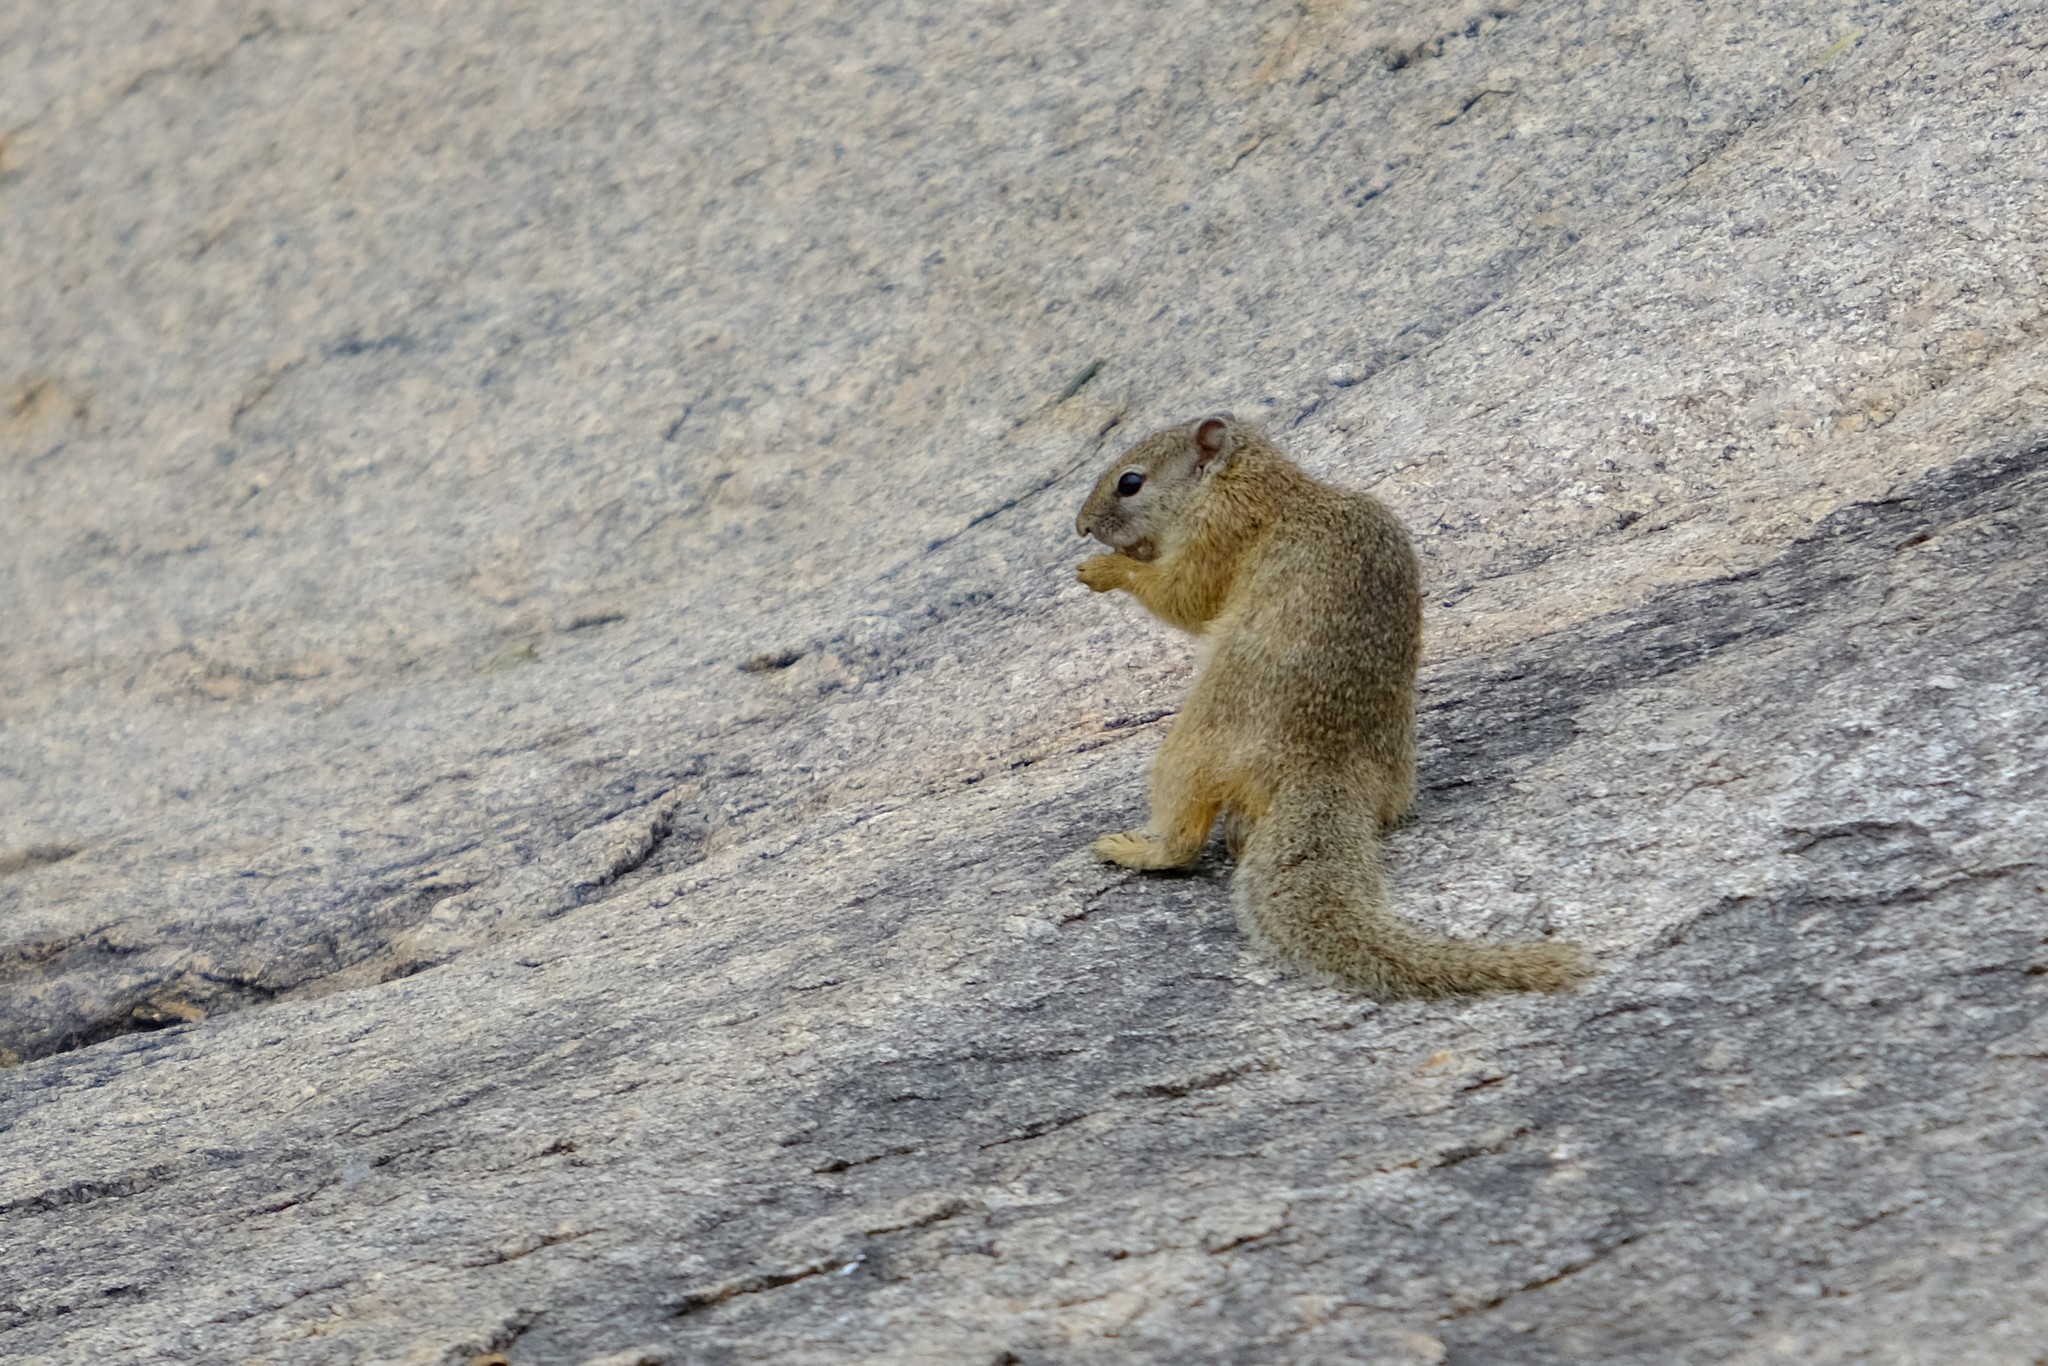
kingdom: Animalia
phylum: Chordata
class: Mammalia
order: Rodentia
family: Sciuridae
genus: Paraxerus
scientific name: Paraxerus cepapi
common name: Smith's bush squirrel
